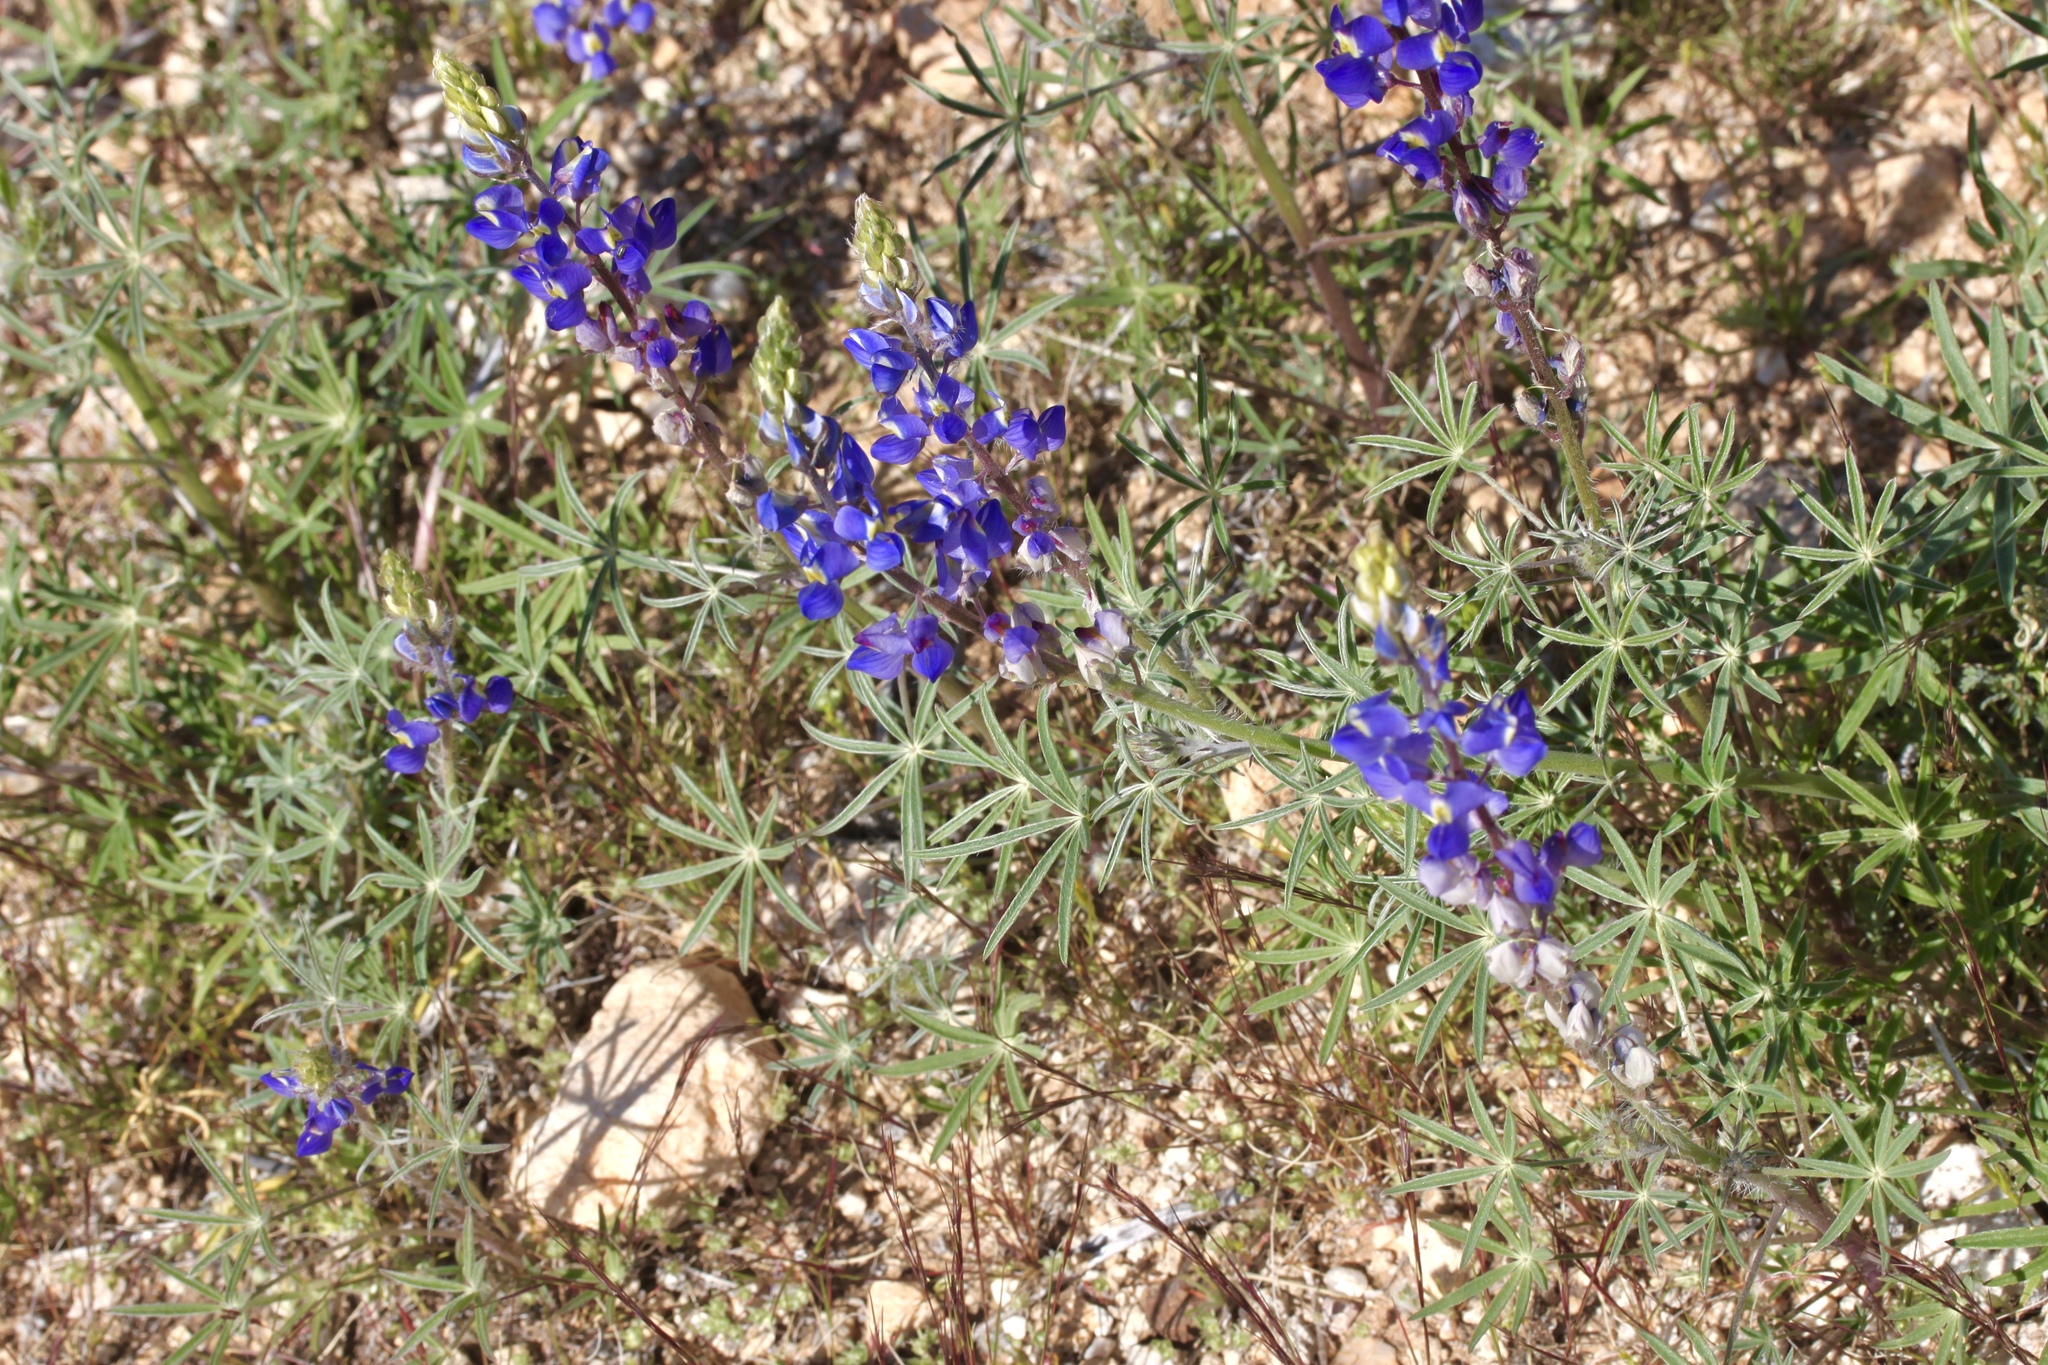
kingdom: Plantae
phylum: Tracheophyta
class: Magnoliopsida
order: Fabales
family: Fabaceae
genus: Lupinus
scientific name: Lupinus sparsiflorus
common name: Coulter's lupine
